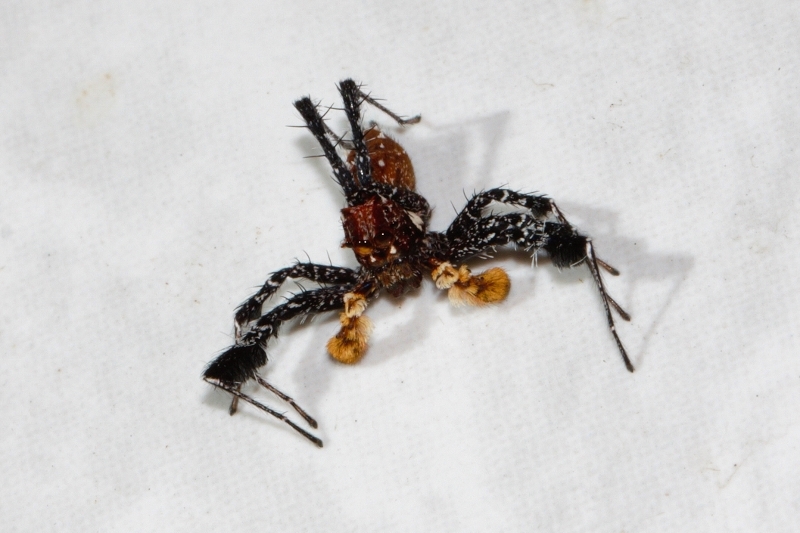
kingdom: Animalia
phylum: Arthropoda
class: Arachnida
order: Araneae
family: Salticidae
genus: Portia
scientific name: Portia schultzi
